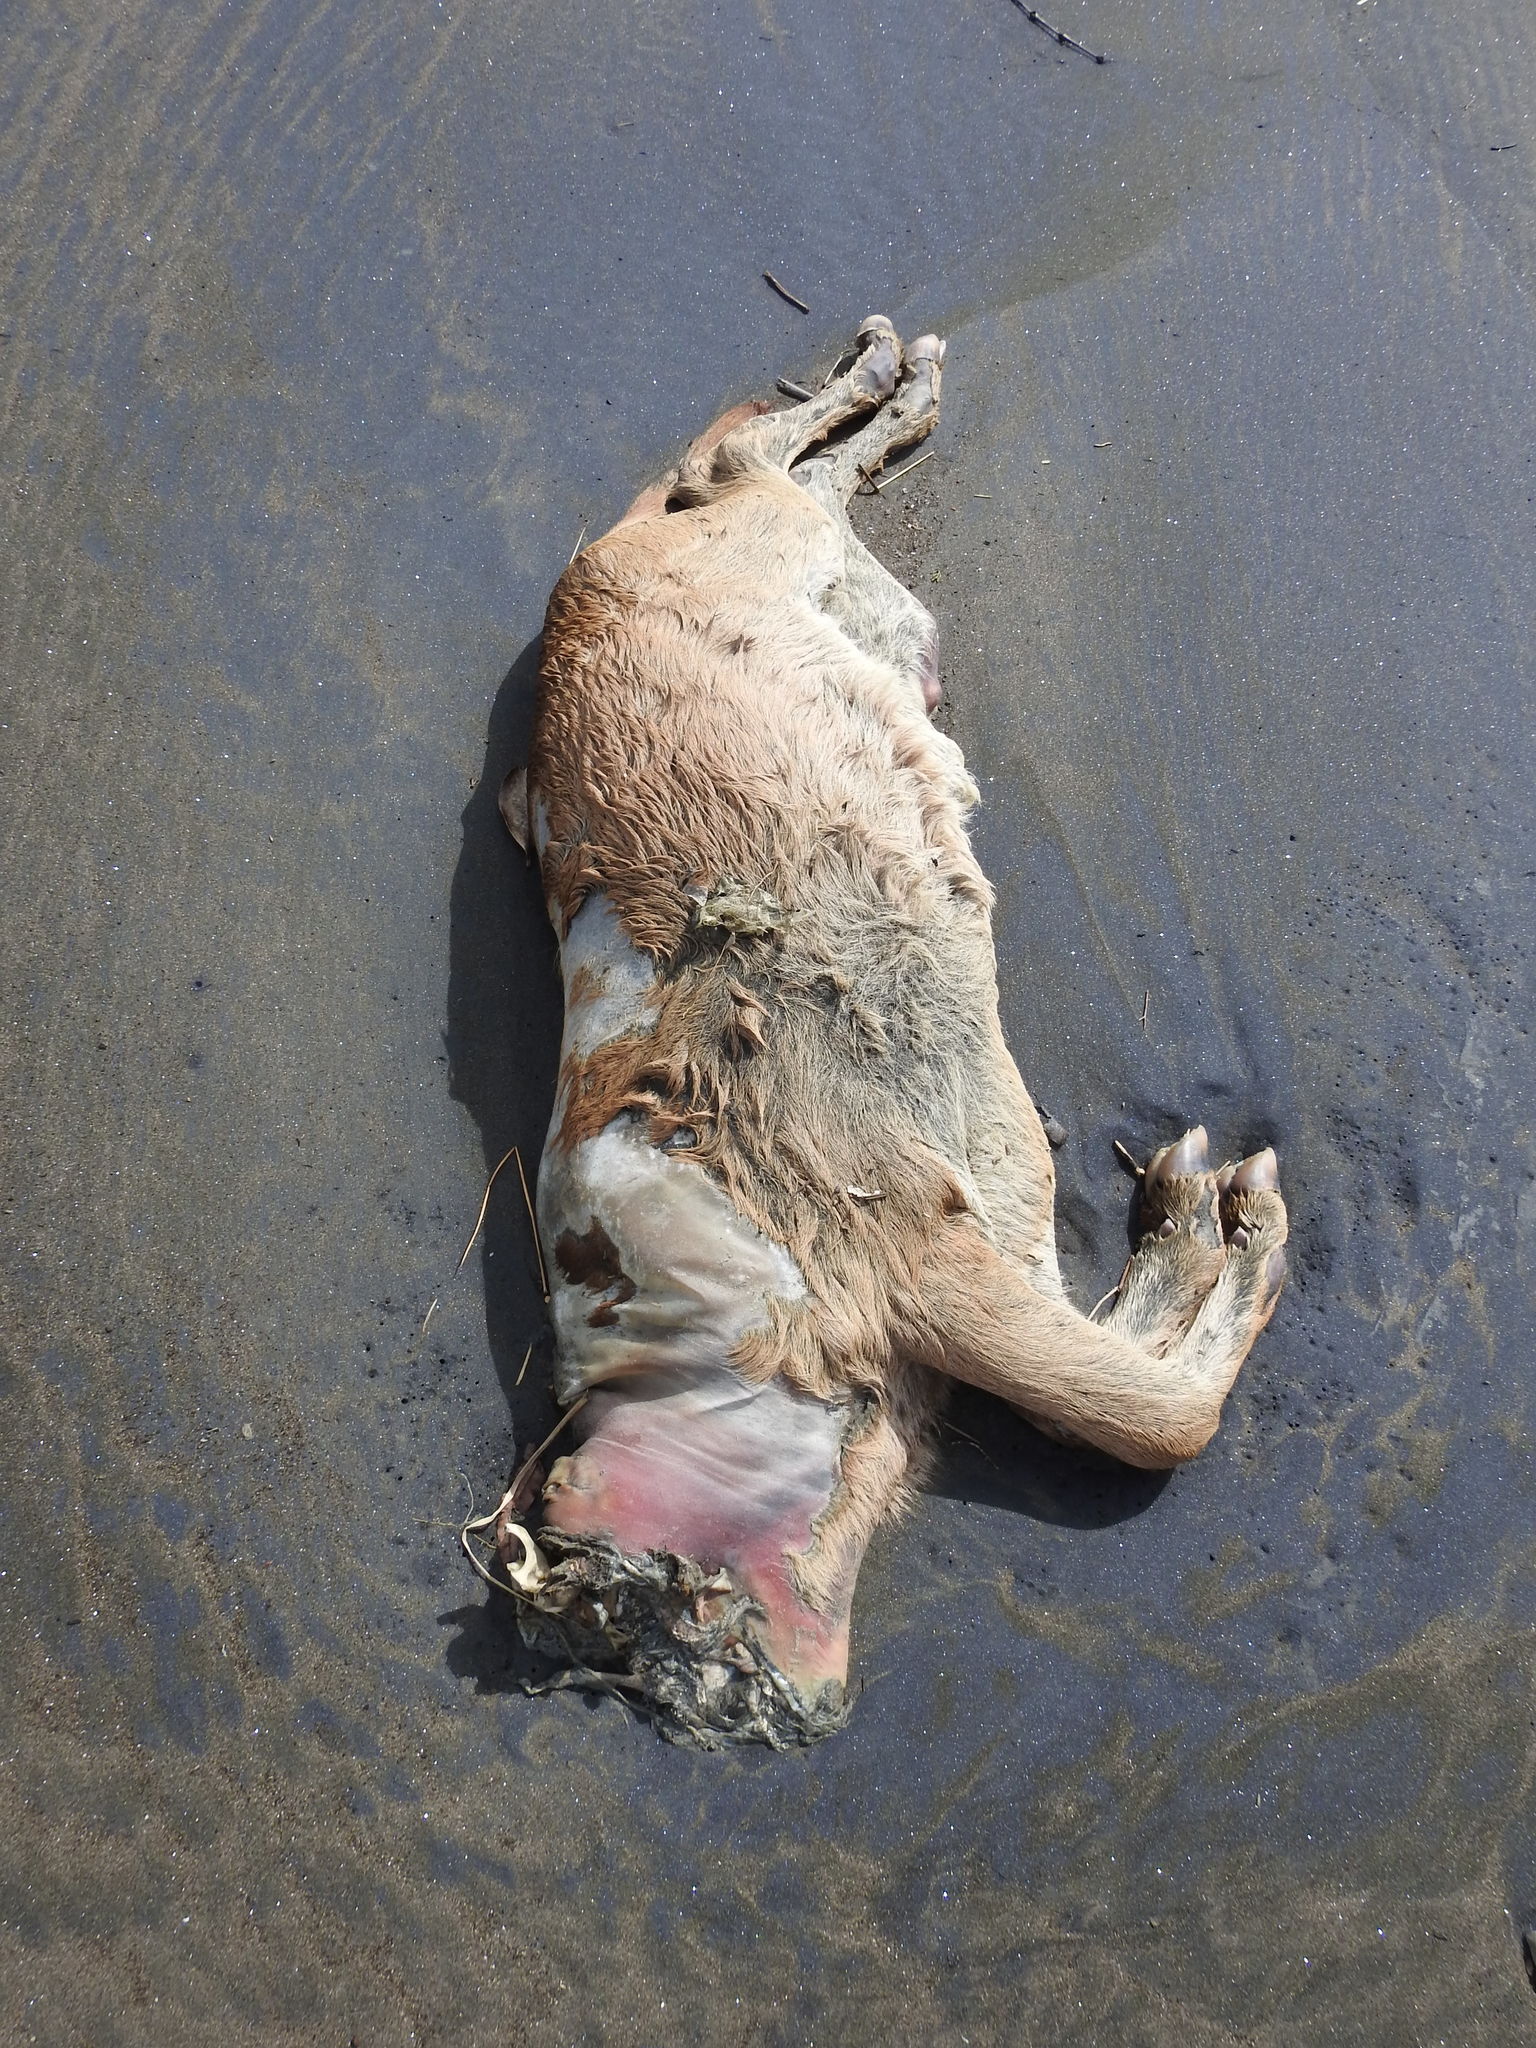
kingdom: Animalia
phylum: Chordata
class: Mammalia
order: Artiodactyla
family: Cervidae
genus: Cervus
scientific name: Cervus elaphus
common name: Red deer
